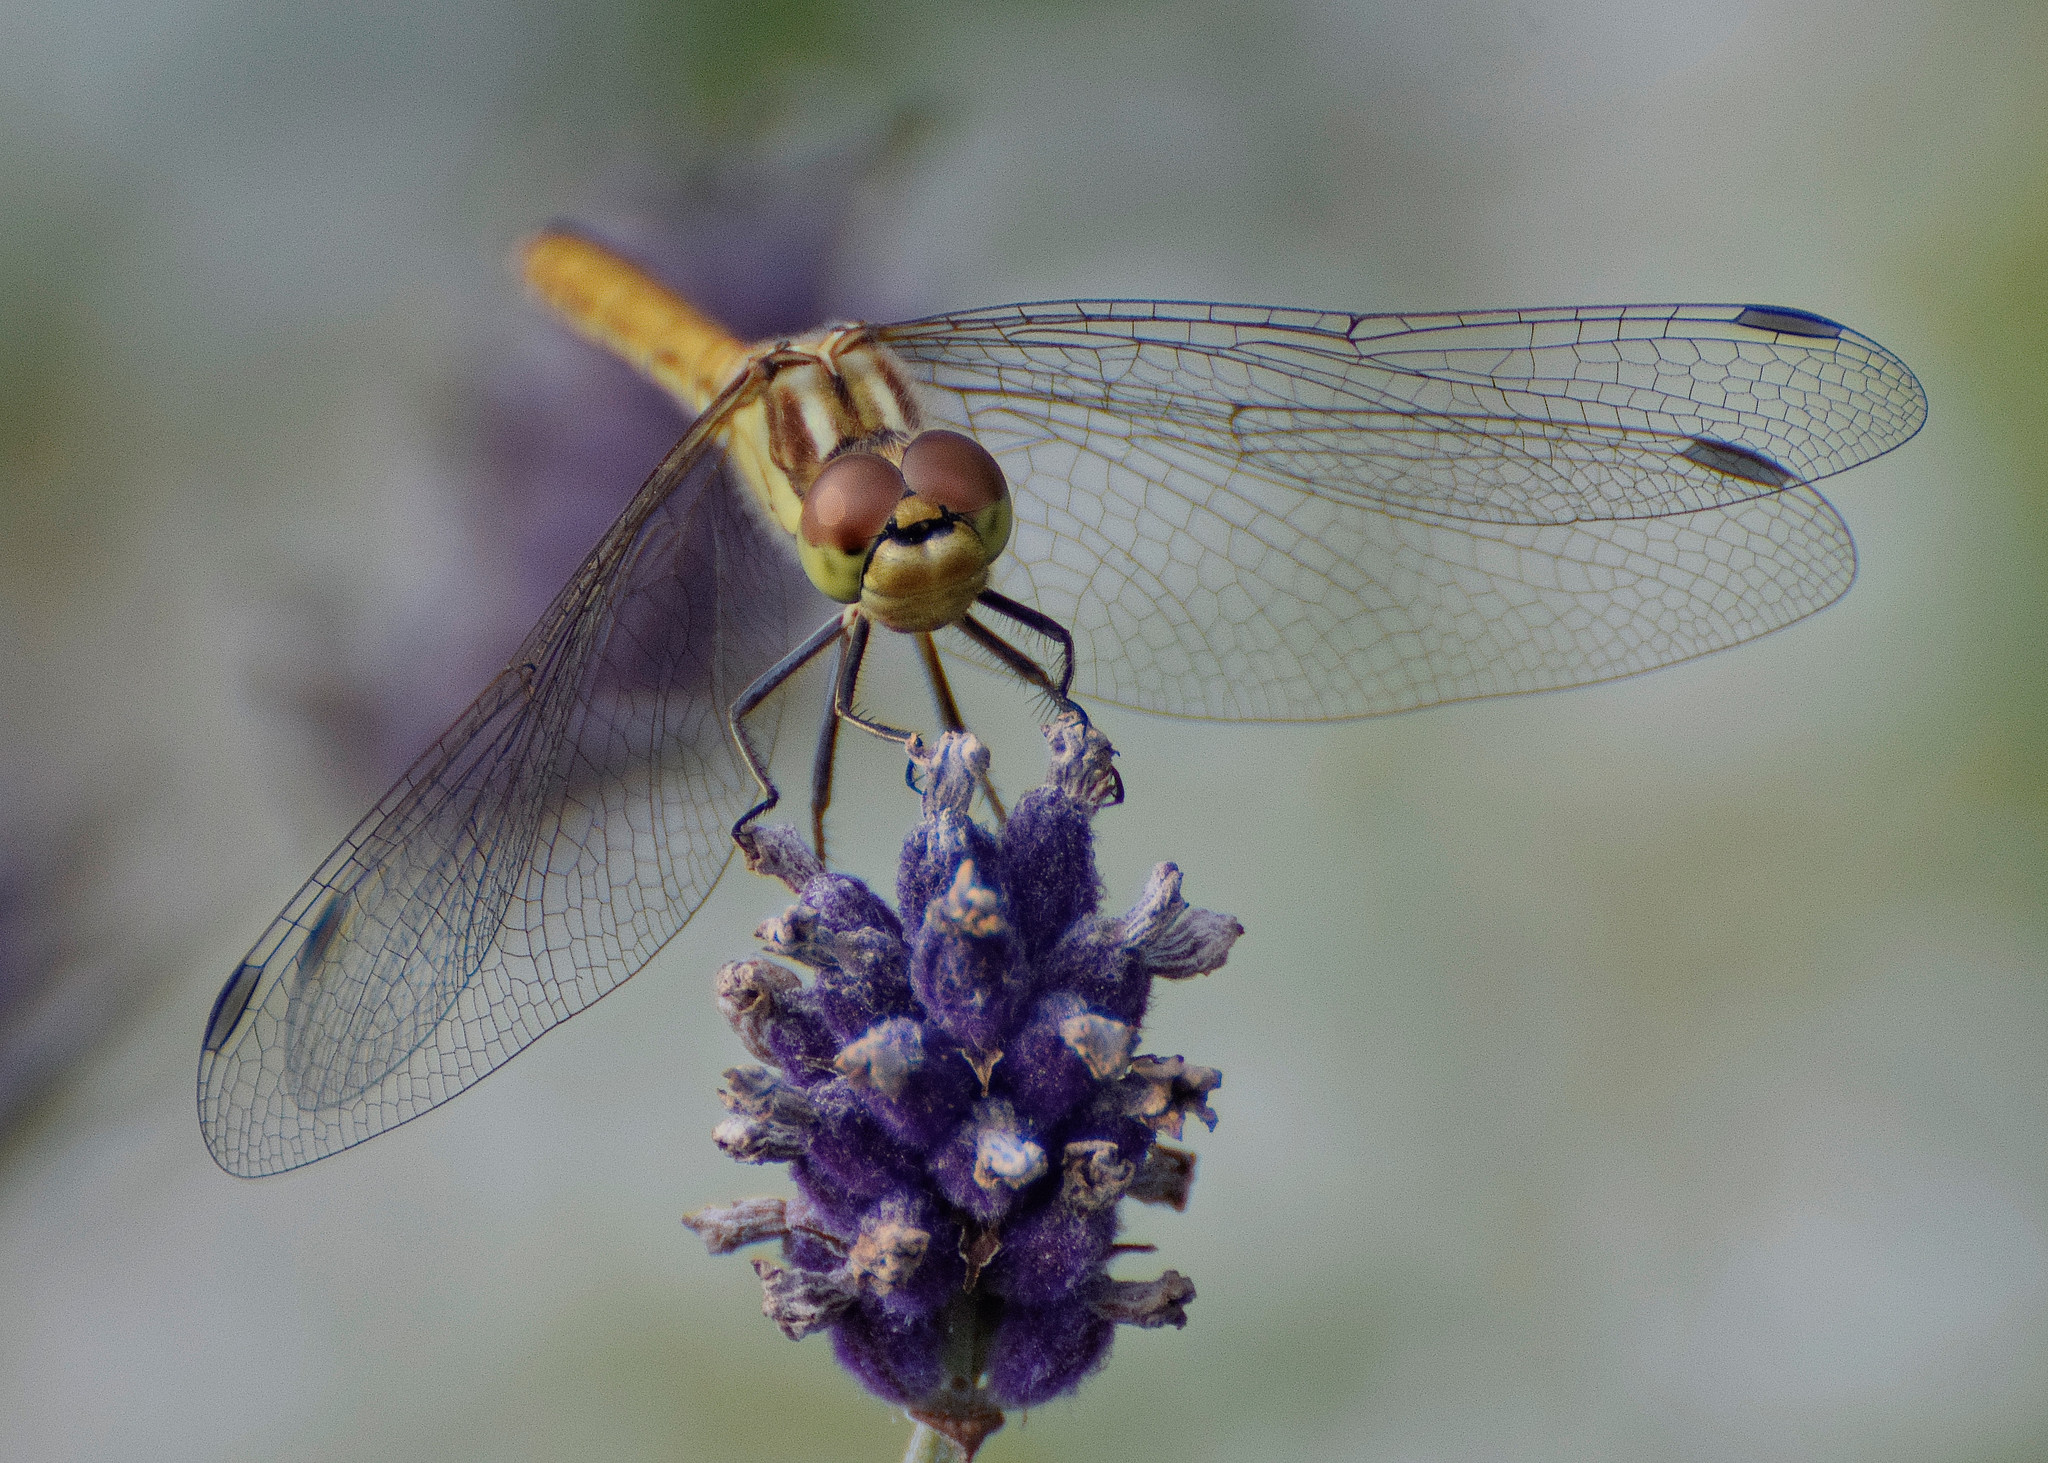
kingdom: Animalia
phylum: Arthropoda
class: Insecta
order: Odonata
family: Libellulidae
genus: Sympetrum
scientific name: Sympetrum vulgatum
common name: Vagrant darter
